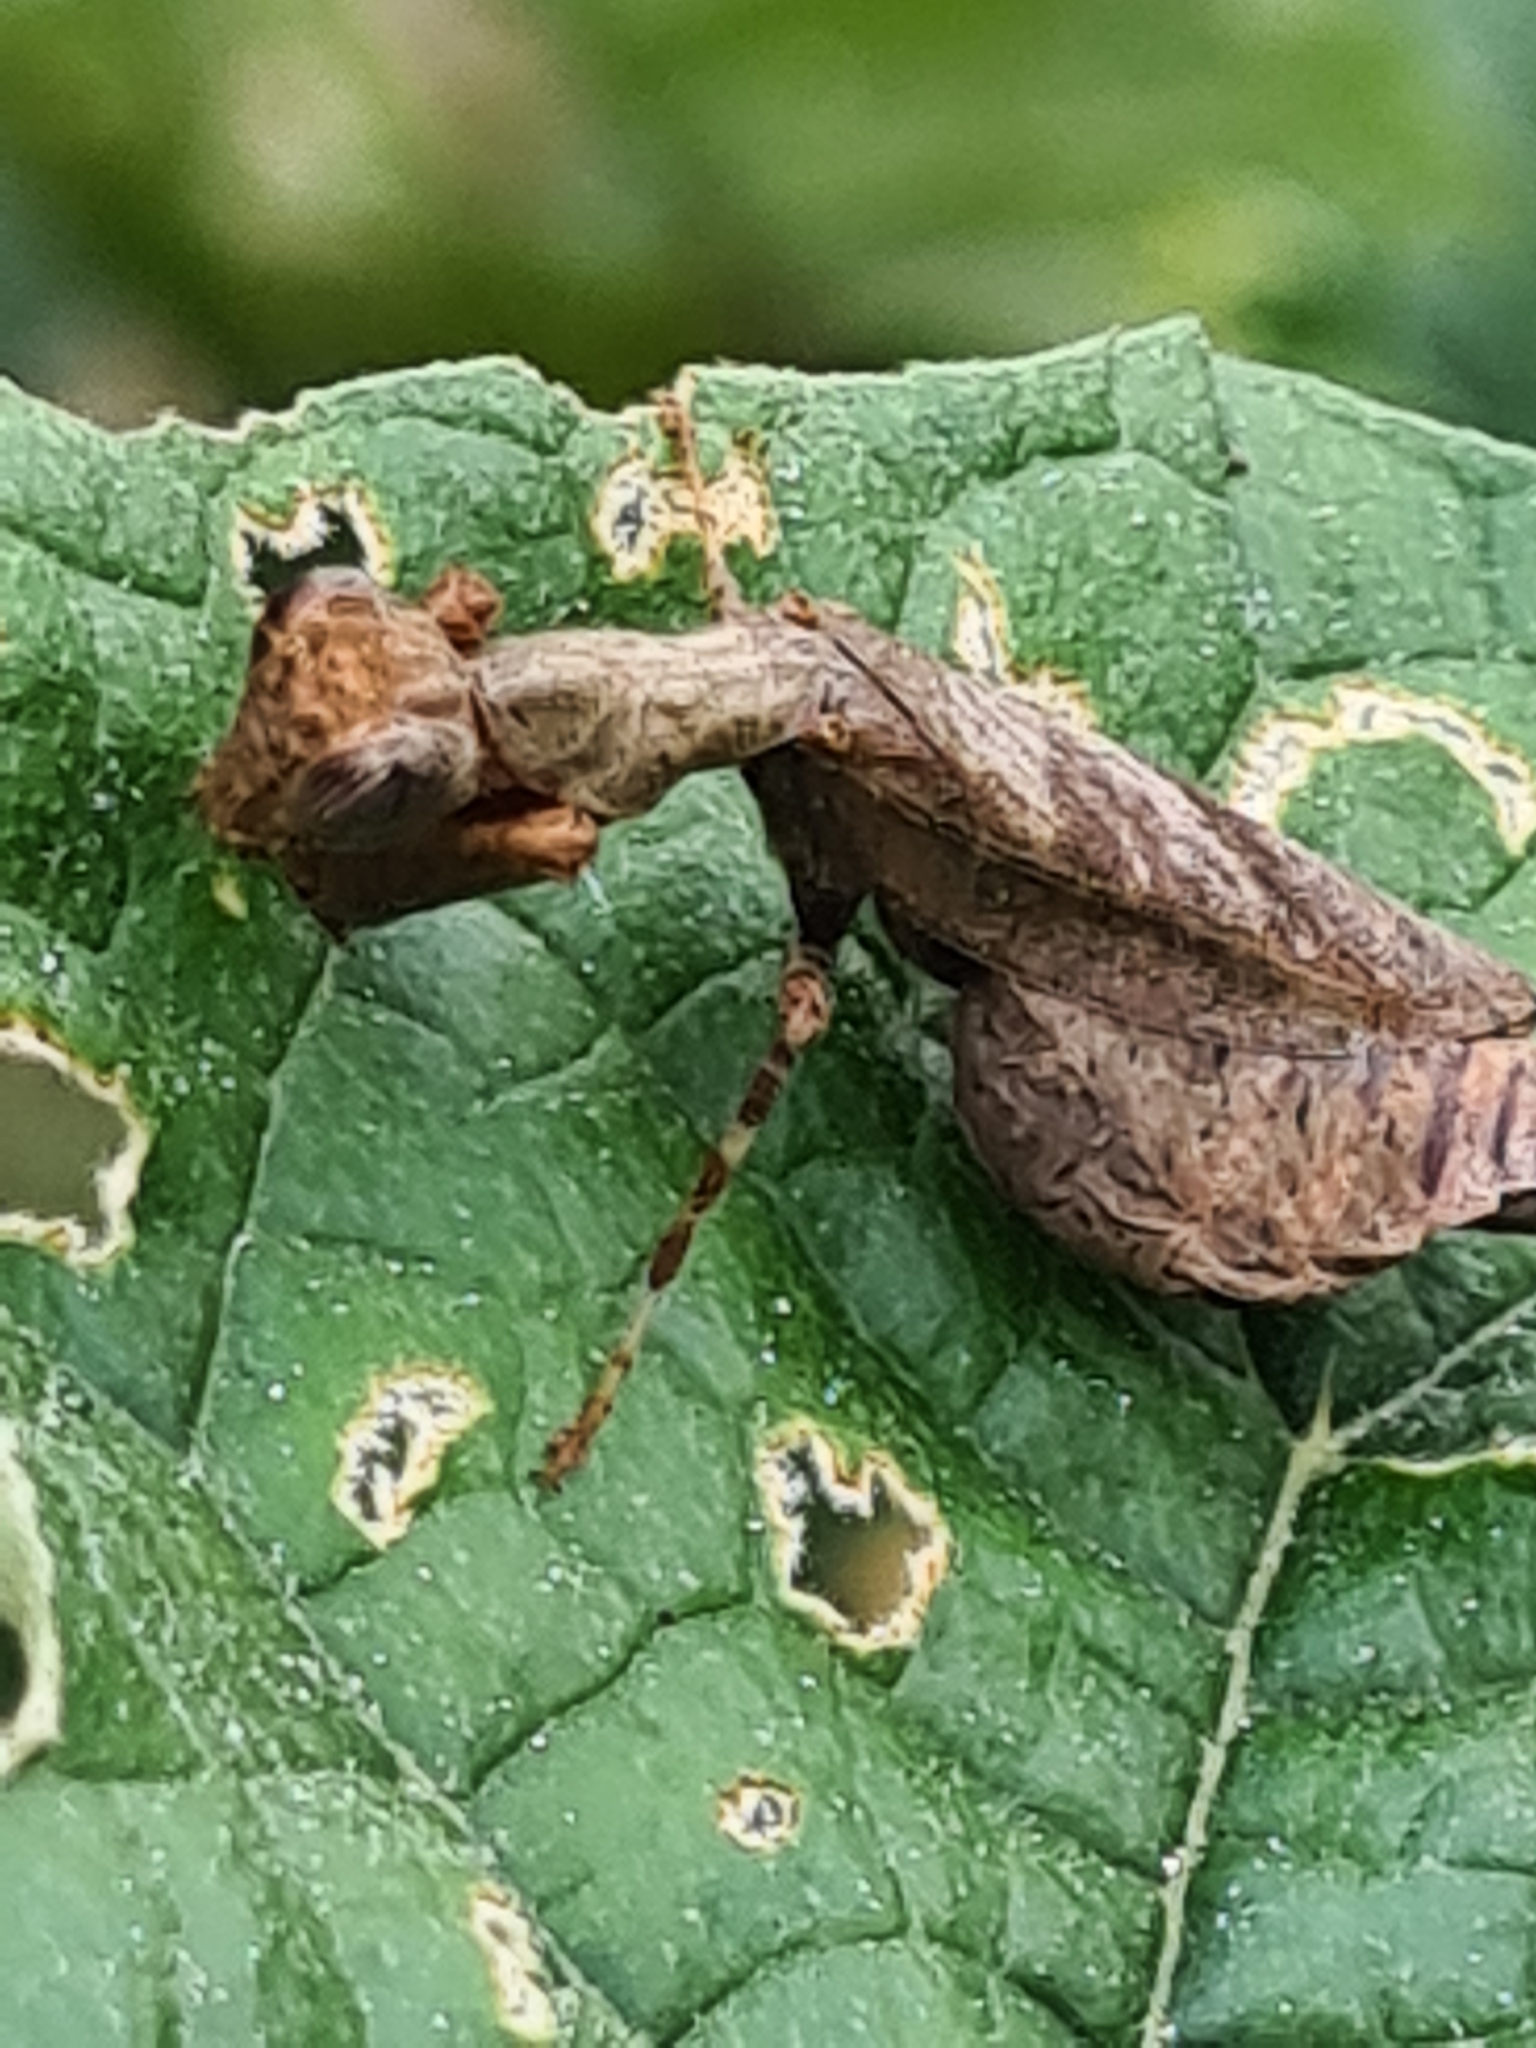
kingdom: Animalia
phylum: Arthropoda
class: Insecta
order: Mantodea
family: Acanthopidae
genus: Raptrix
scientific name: Raptrix perspicua
